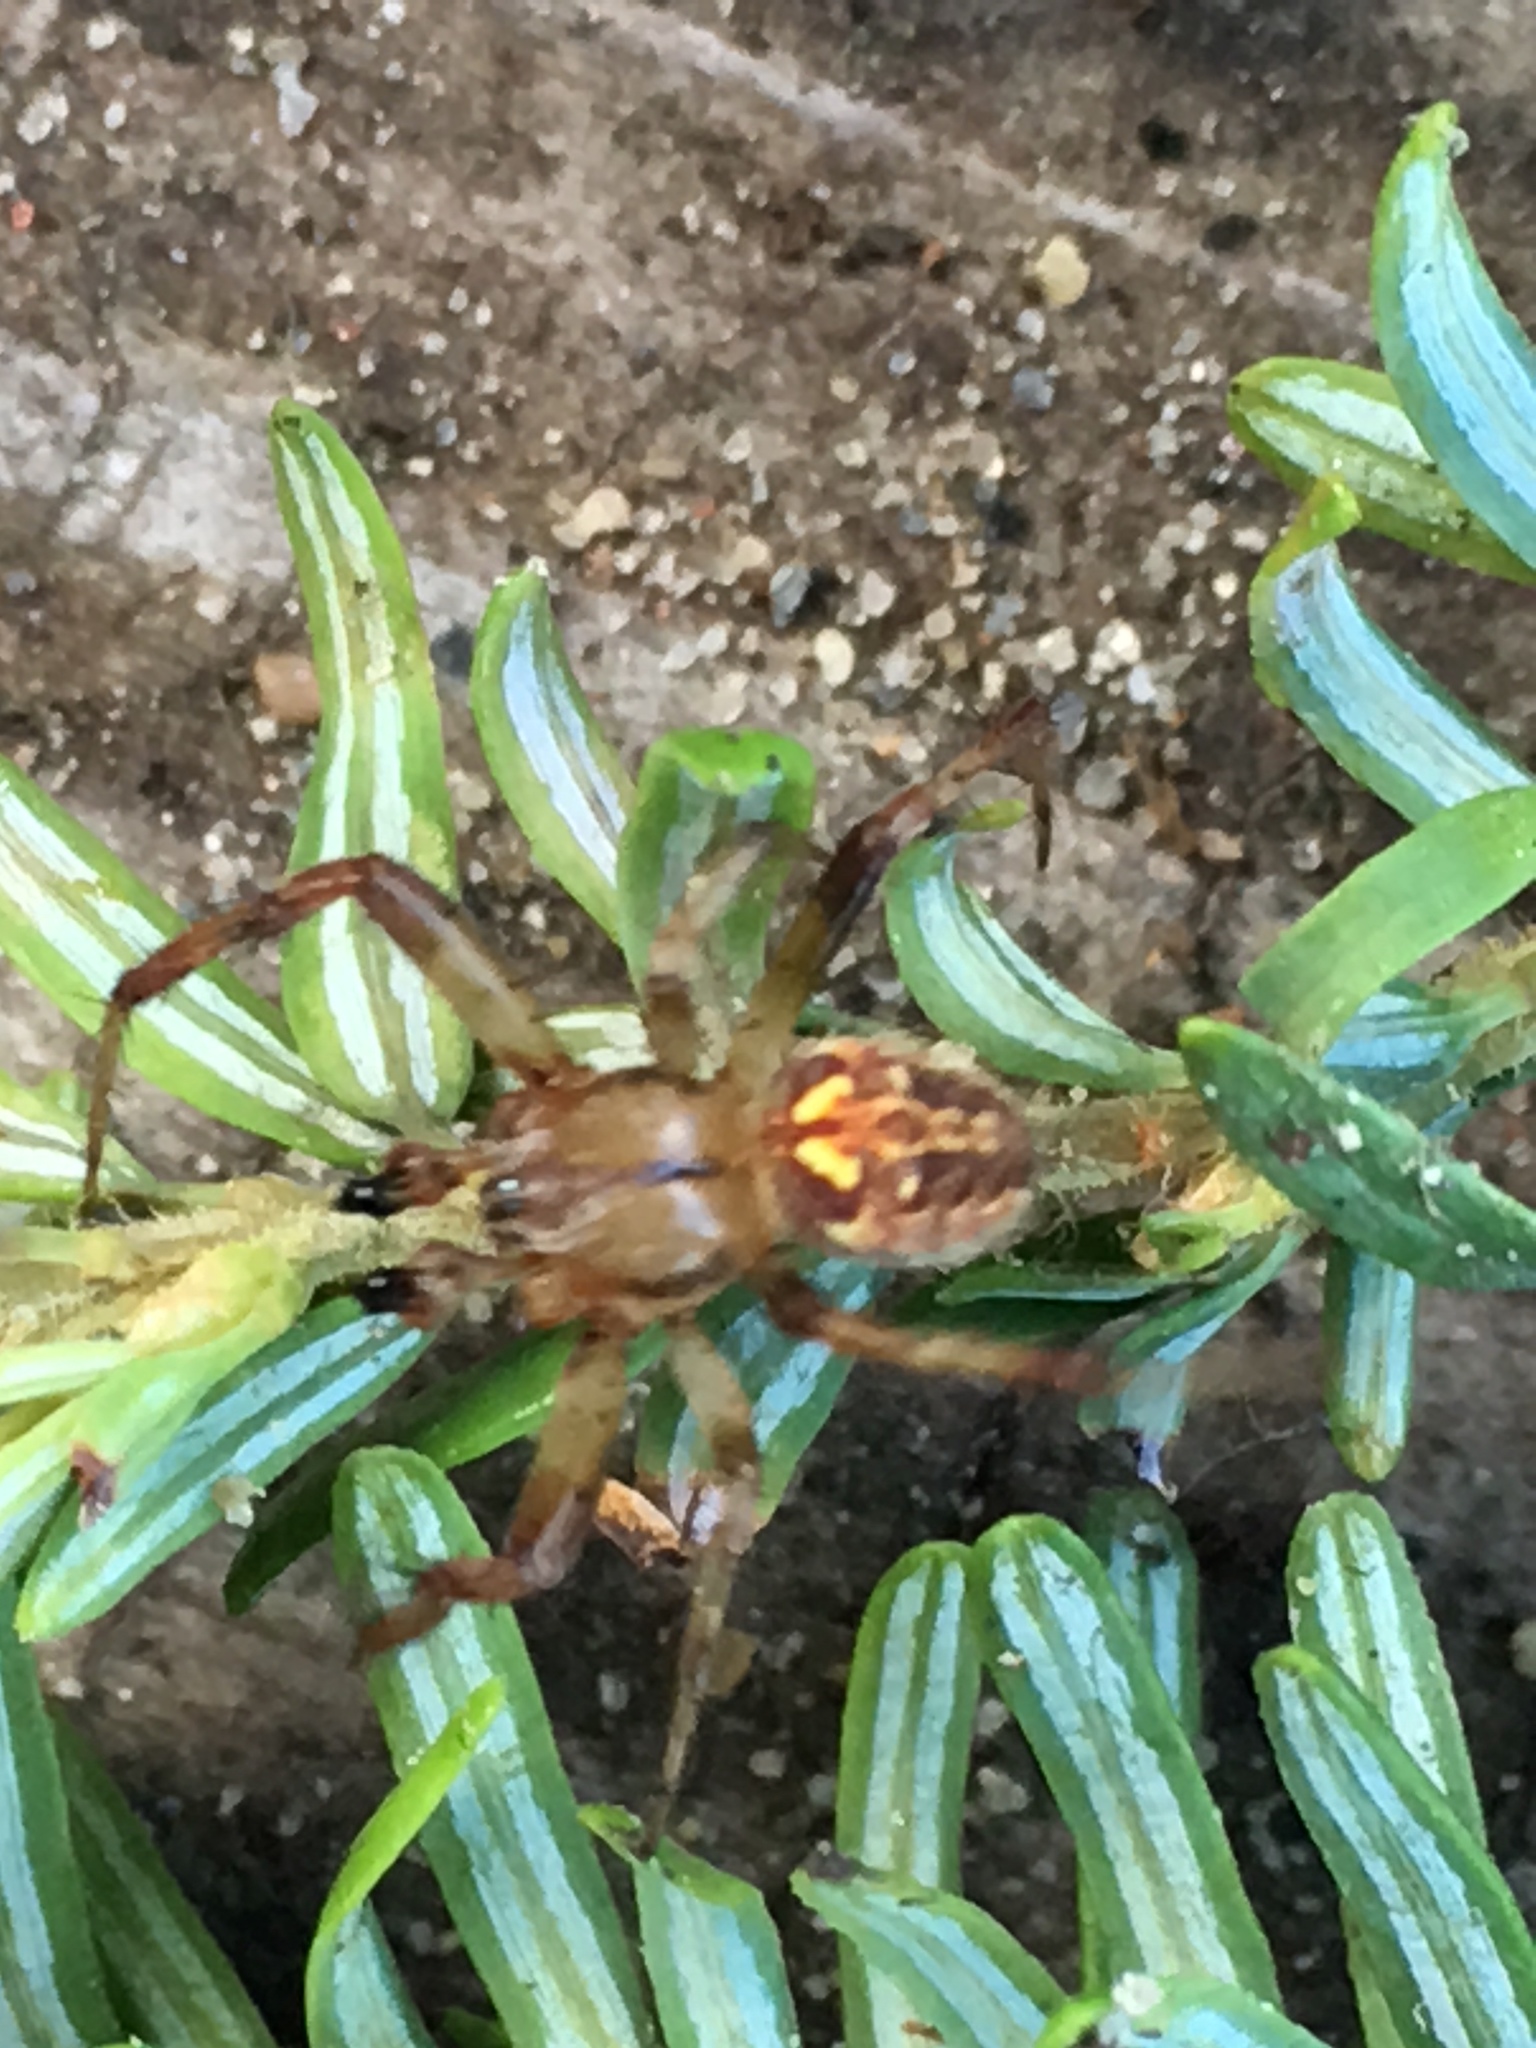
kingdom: Animalia
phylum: Arthropoda
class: Arachnida
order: Araneae
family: Araneidae
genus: Neoscona
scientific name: Neoscona arabesca
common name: Orb weavers
